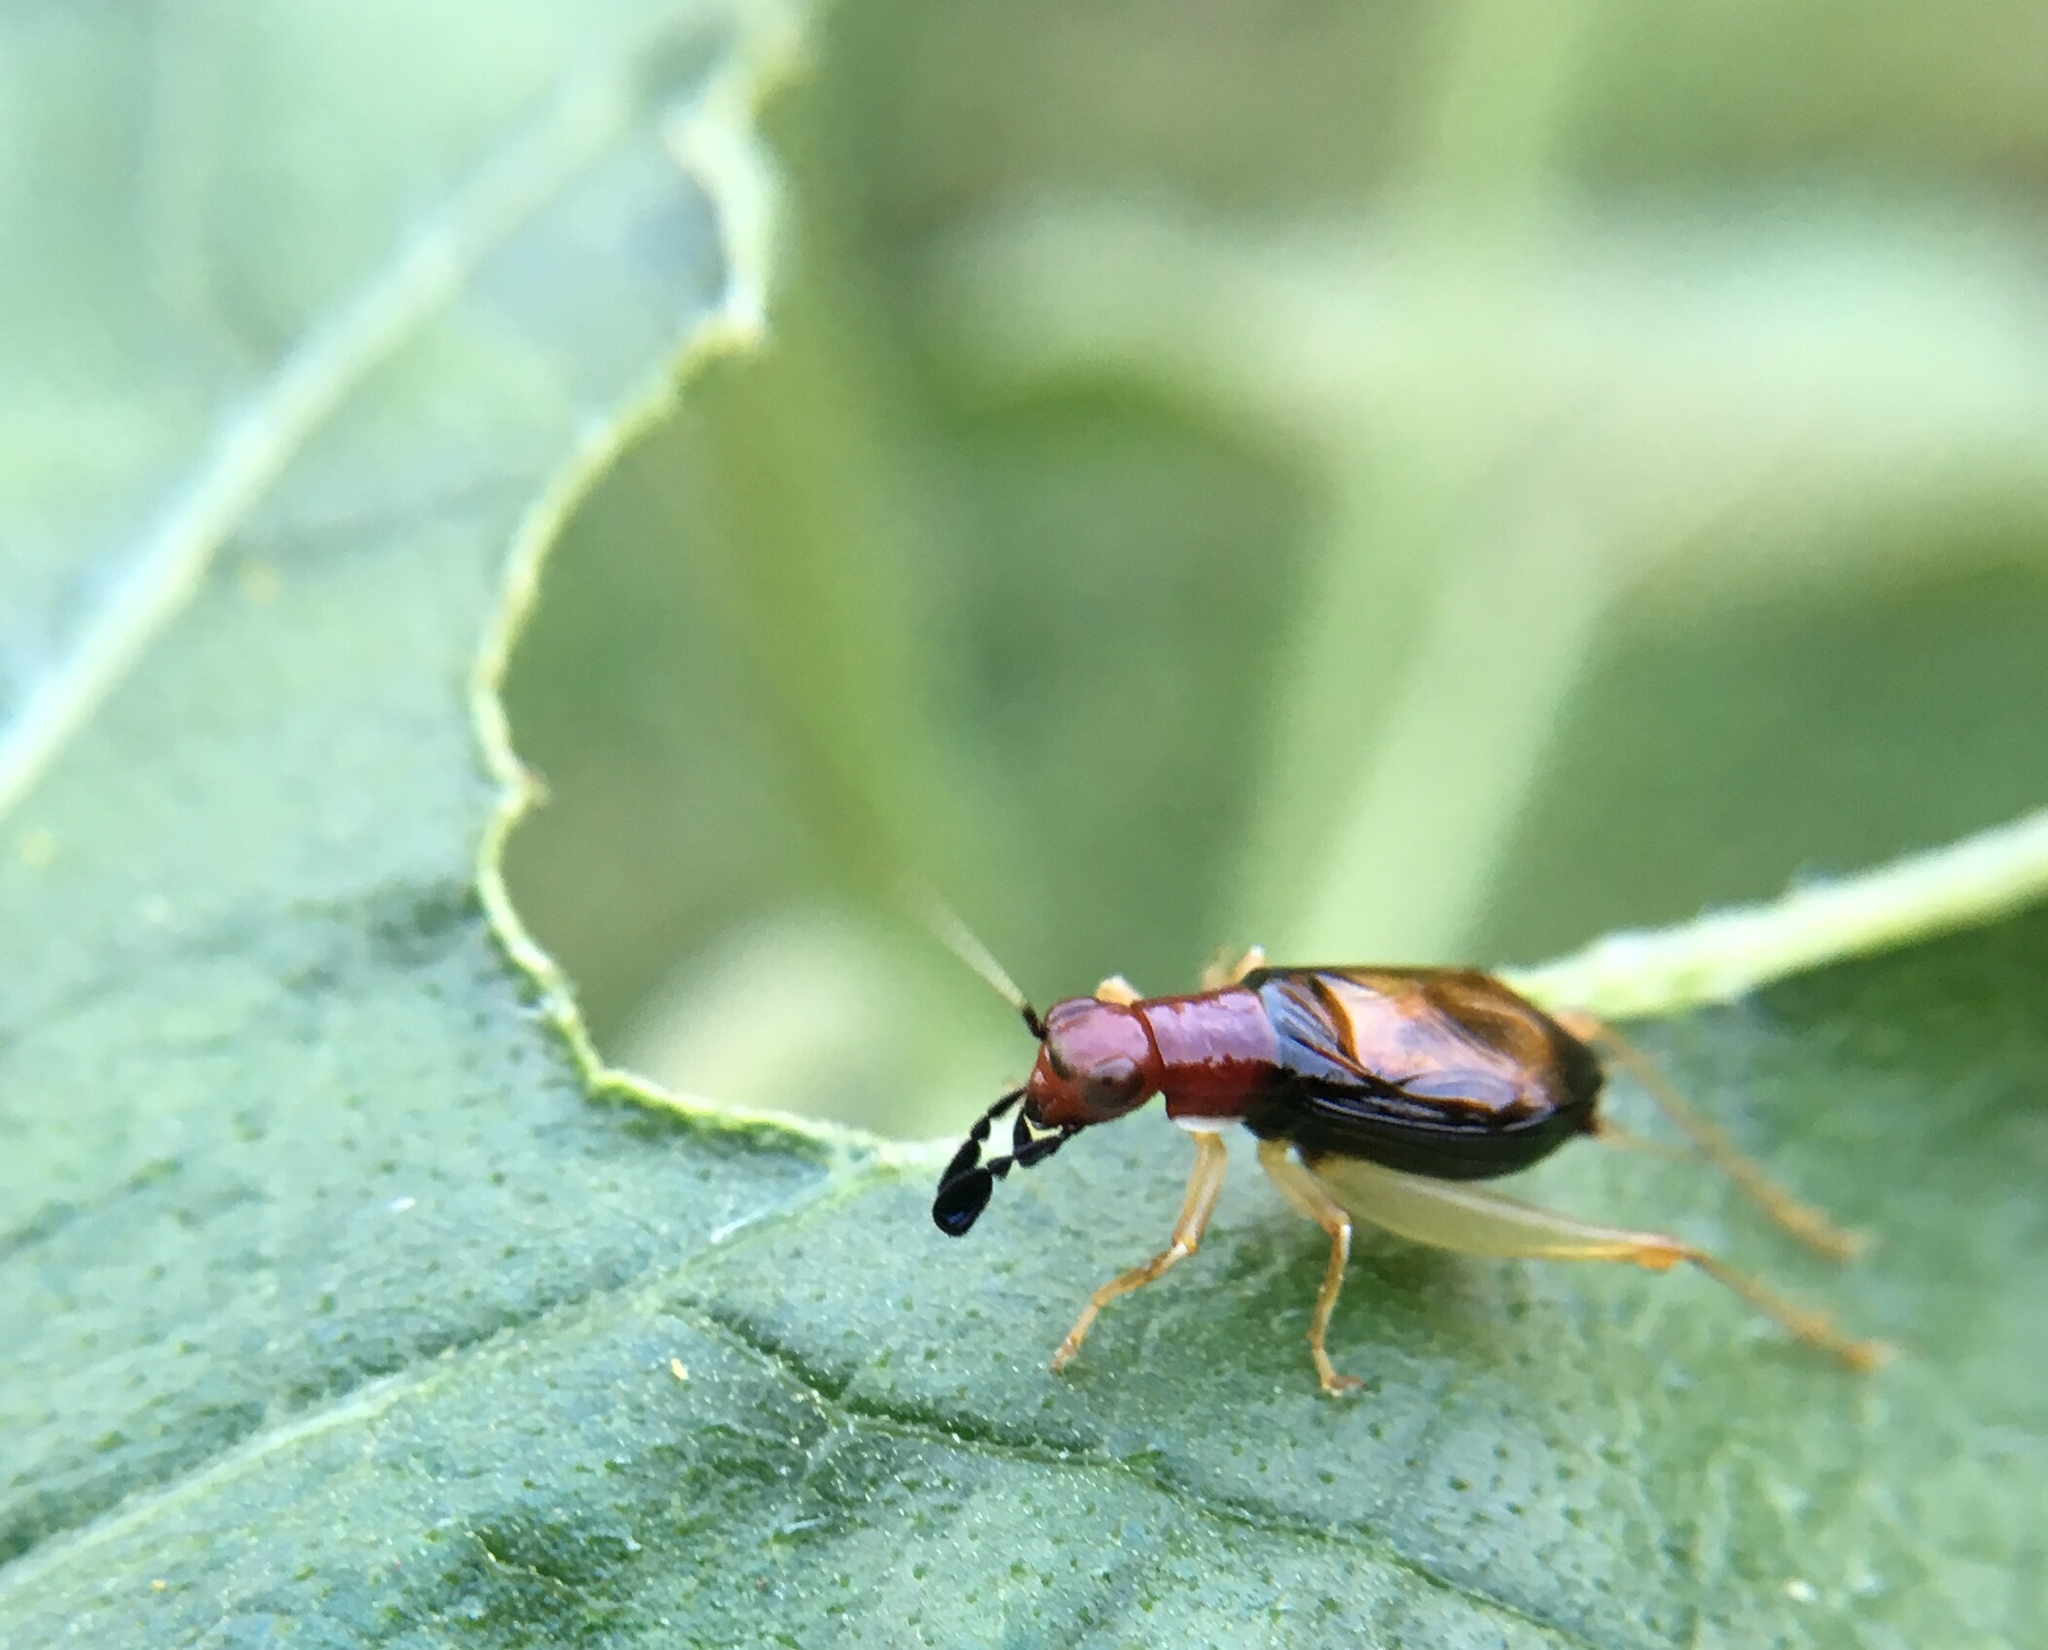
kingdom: Animalia
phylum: Arthropoda
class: Insecta
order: Orthoptera
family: Trigonidiidae
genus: Phyllopalpus
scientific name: Phyllopalpus pulchellus
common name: Handsome trig
